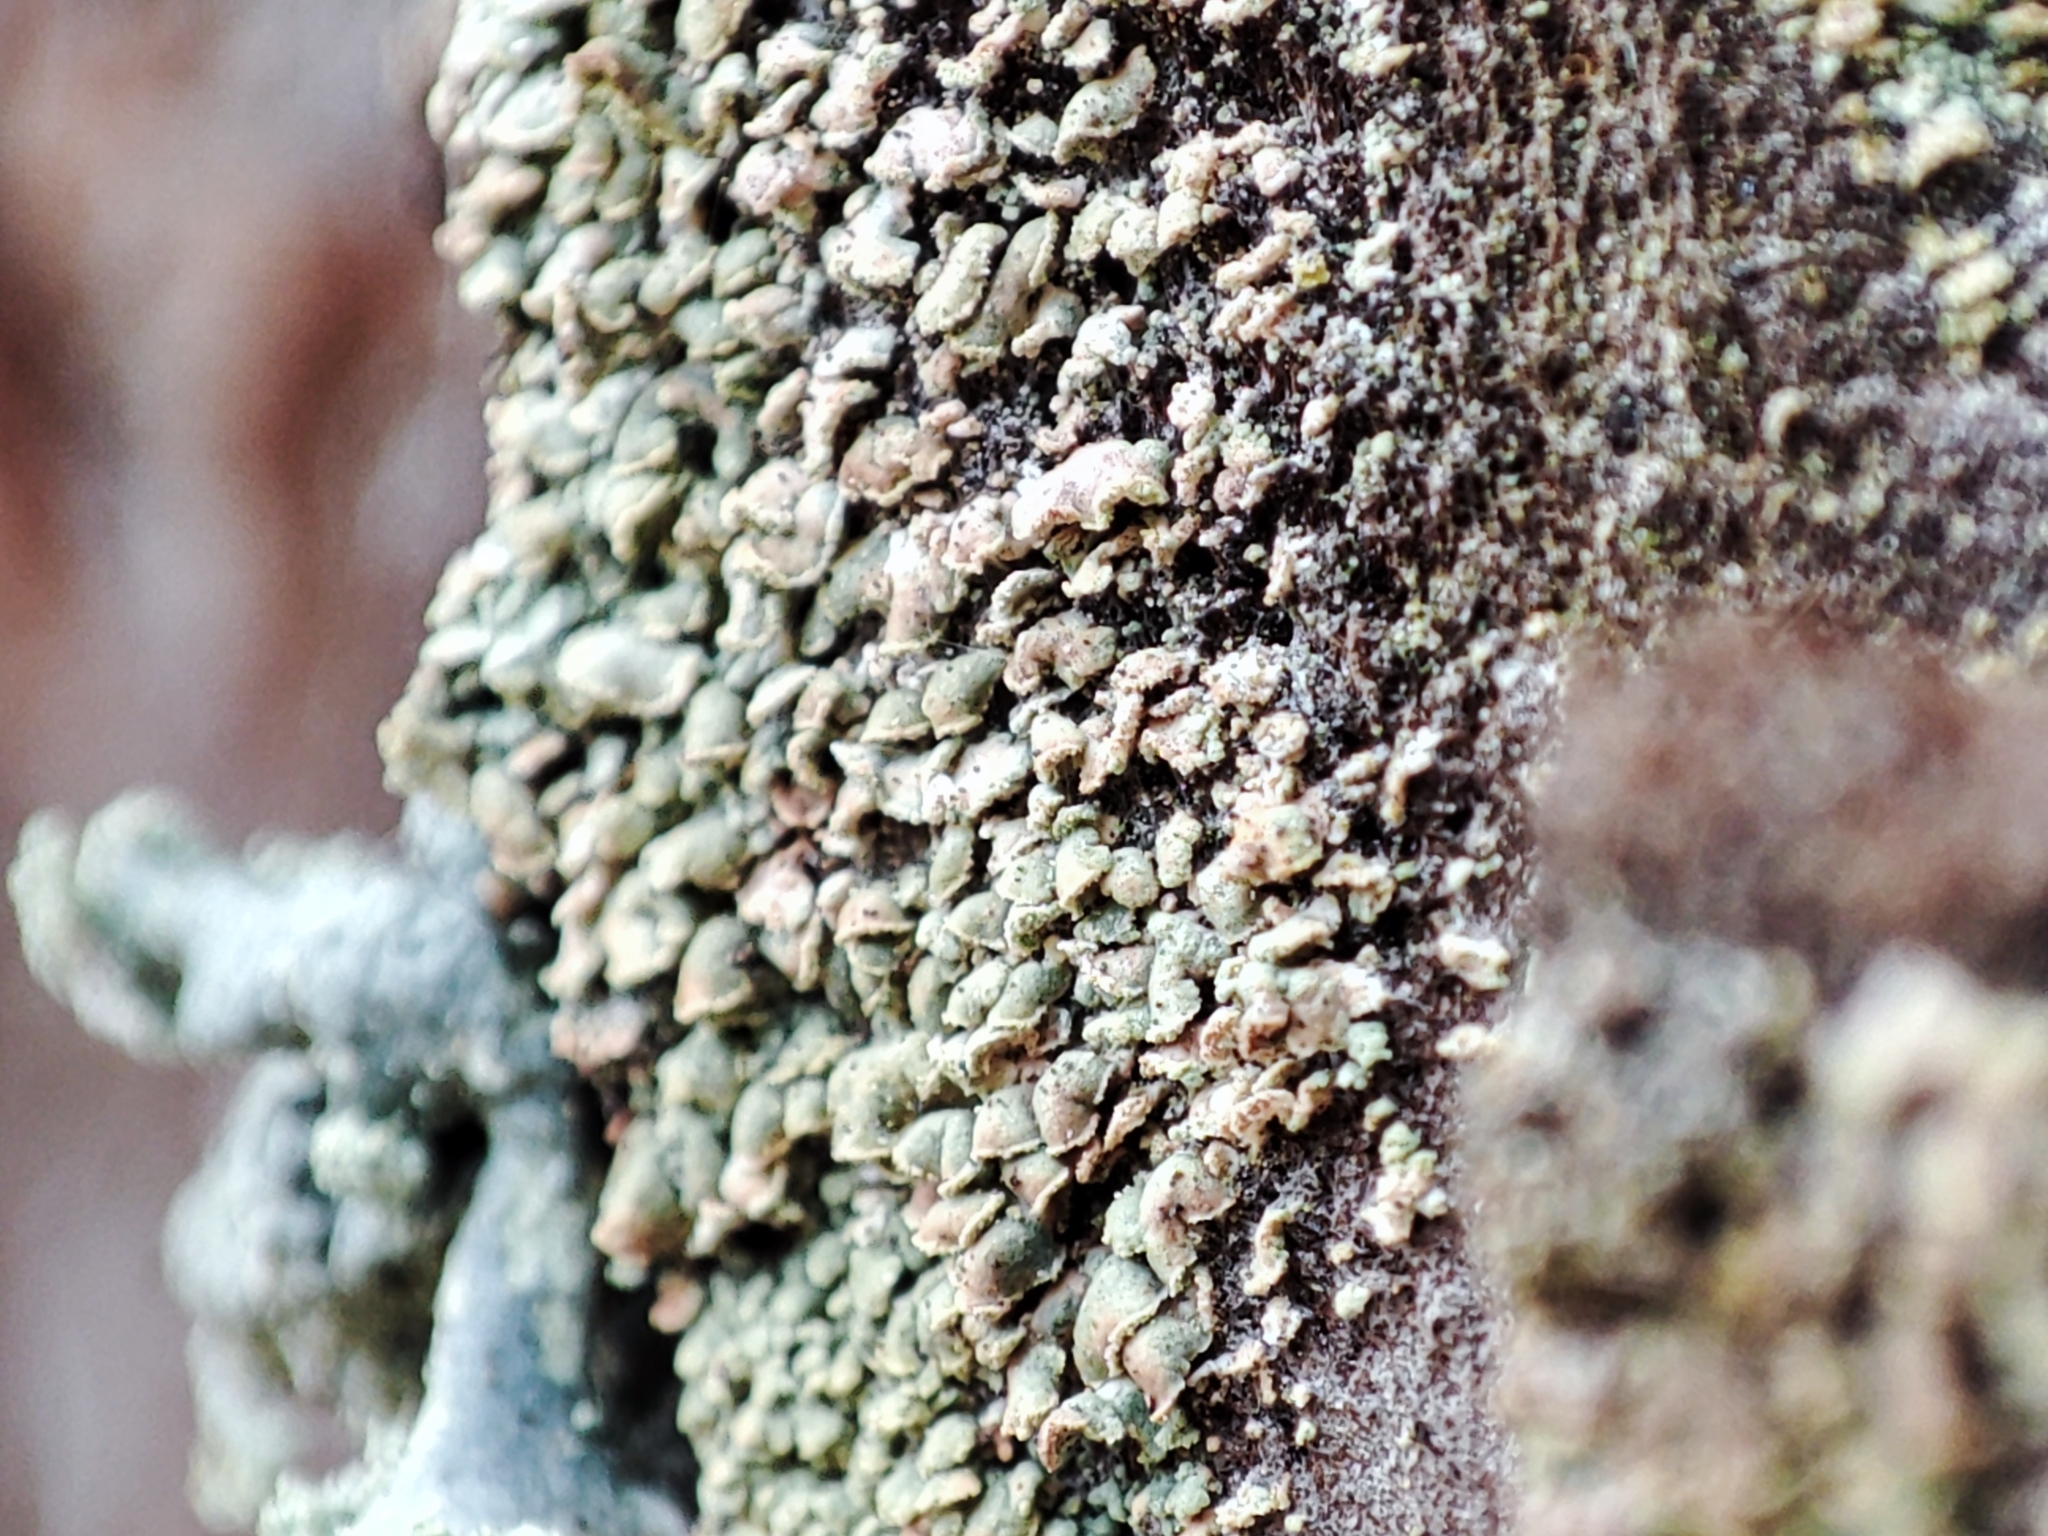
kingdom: Fungi
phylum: Ascomycota
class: Lecanoromycetes
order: Umbilicariales
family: Ophioparmaceae
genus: Hypocenomyce
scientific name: Hypocenomyce scalaris
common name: Common clam lichen
